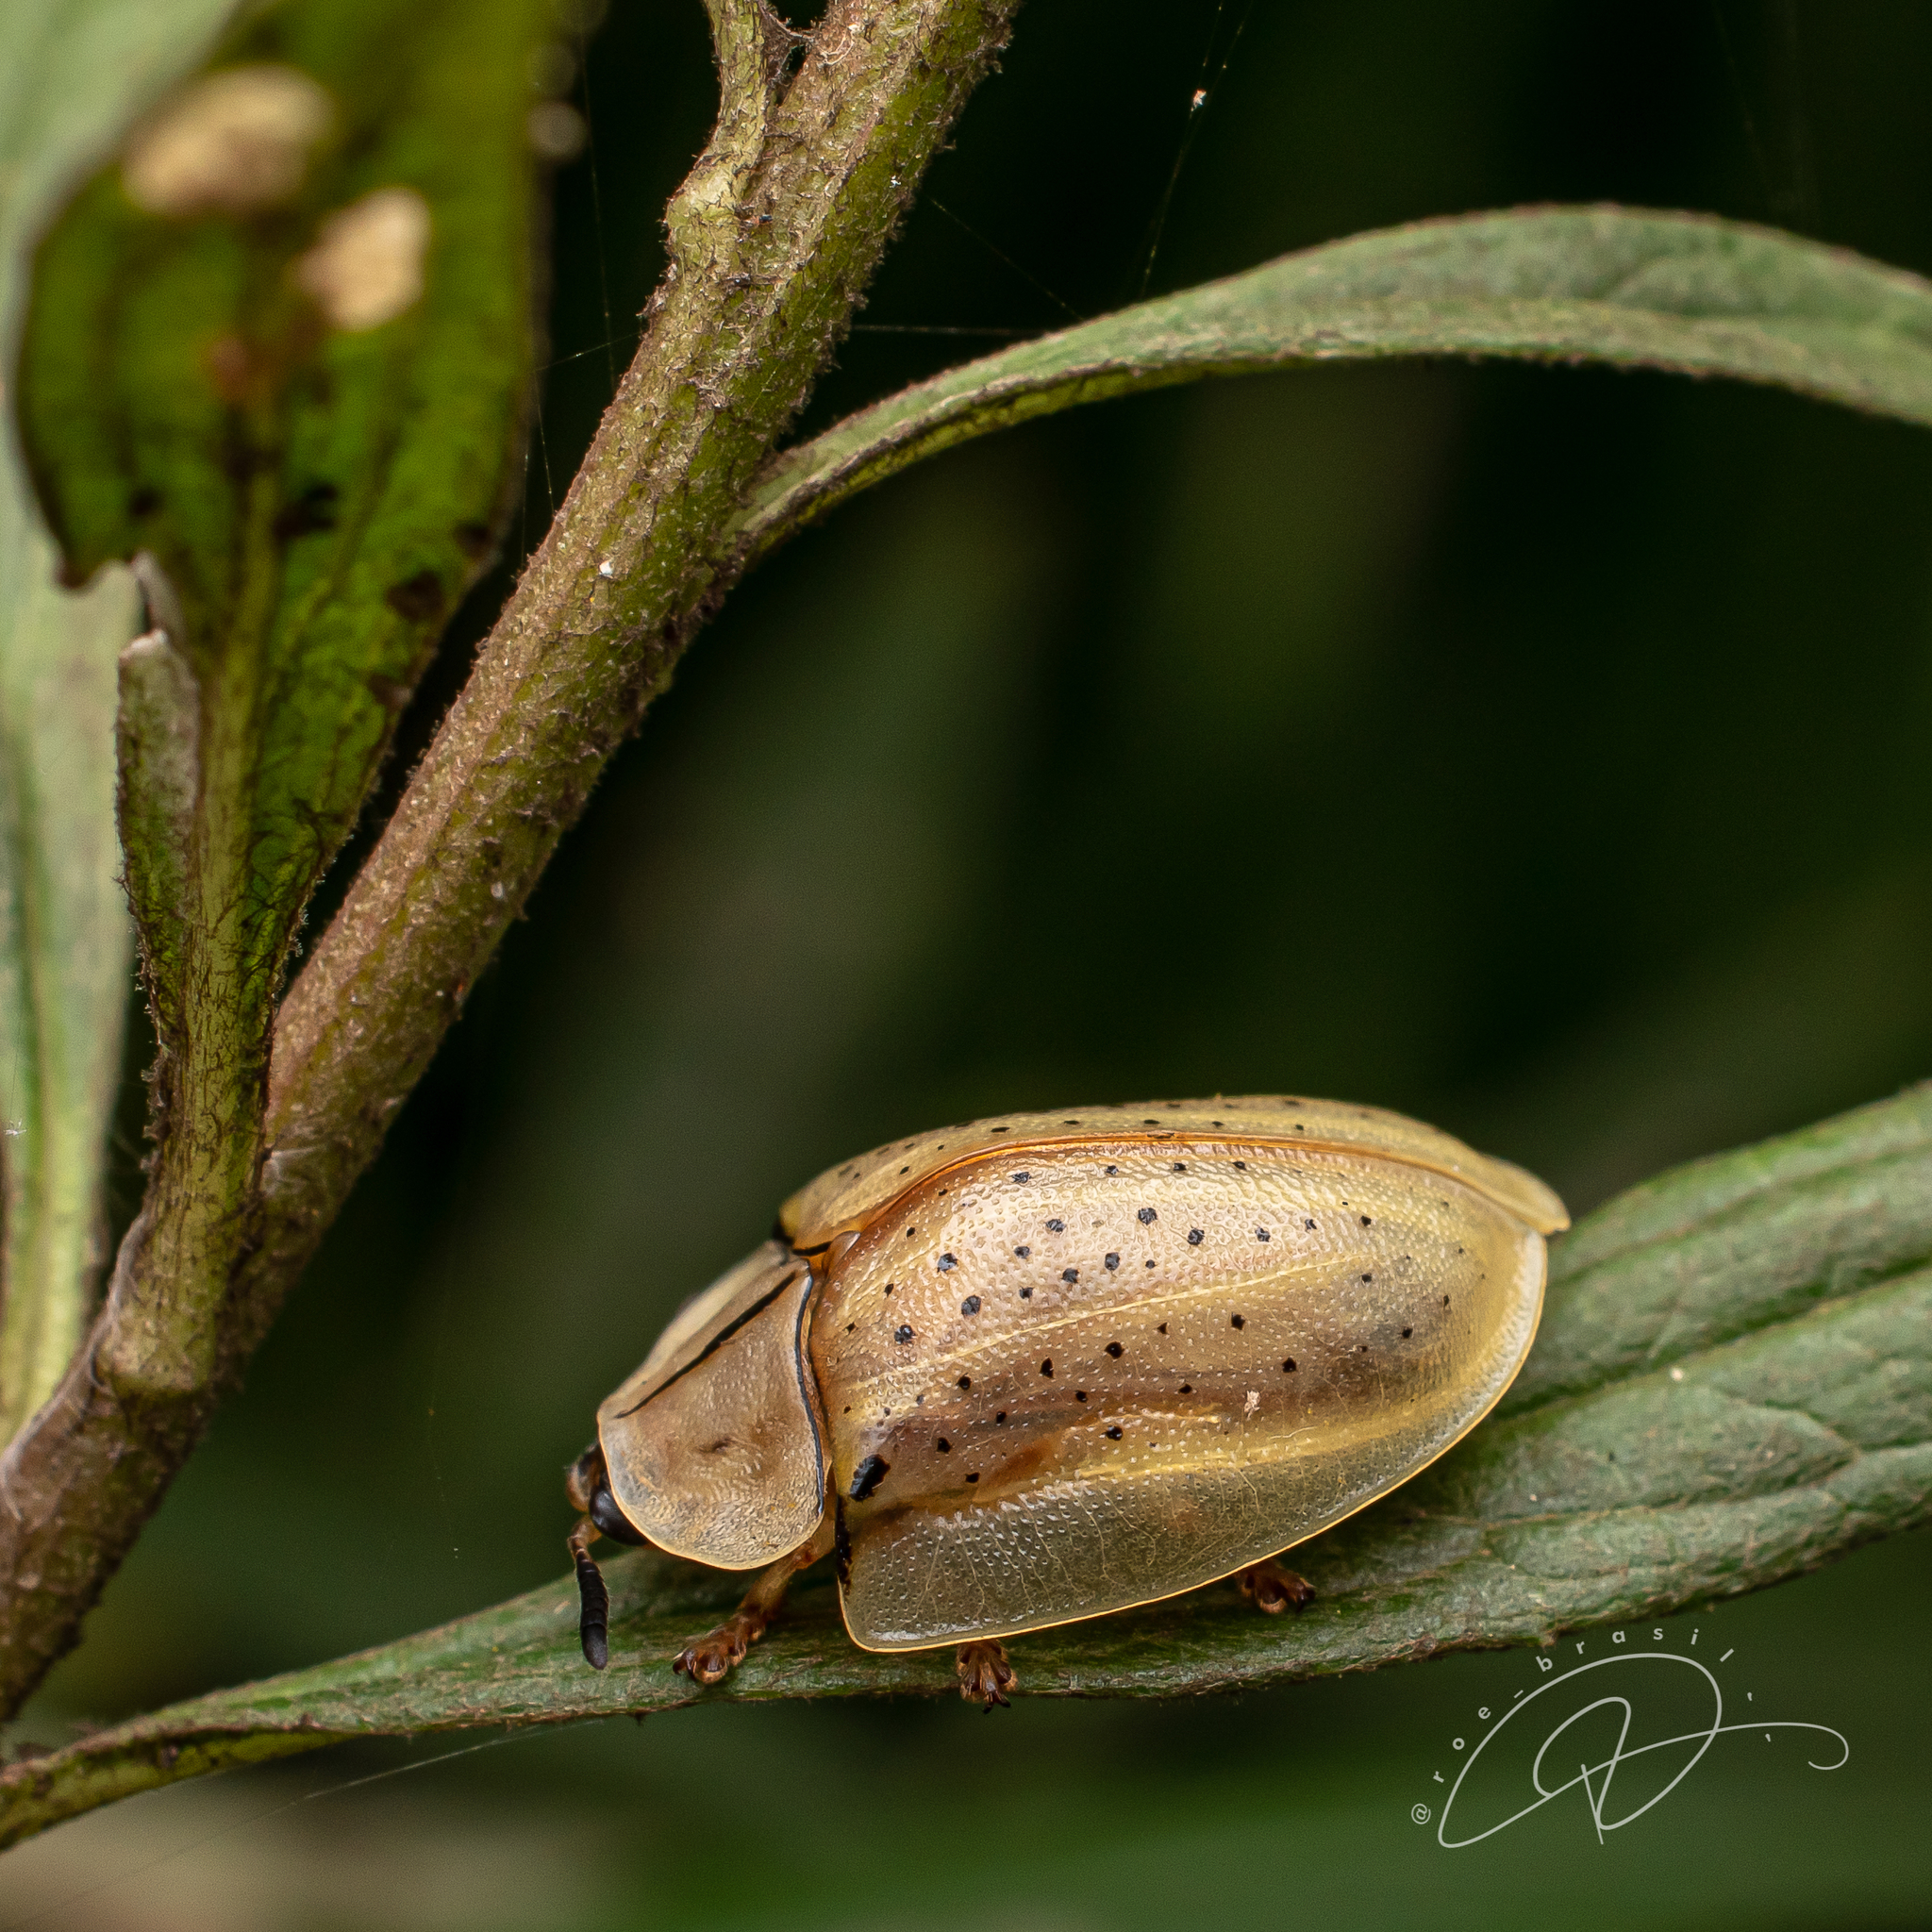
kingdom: Animalia
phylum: Arthropoda
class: Insecta
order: Coleoptera
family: Chrysomelidae
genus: Anacassis
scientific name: Anacassis dubia
